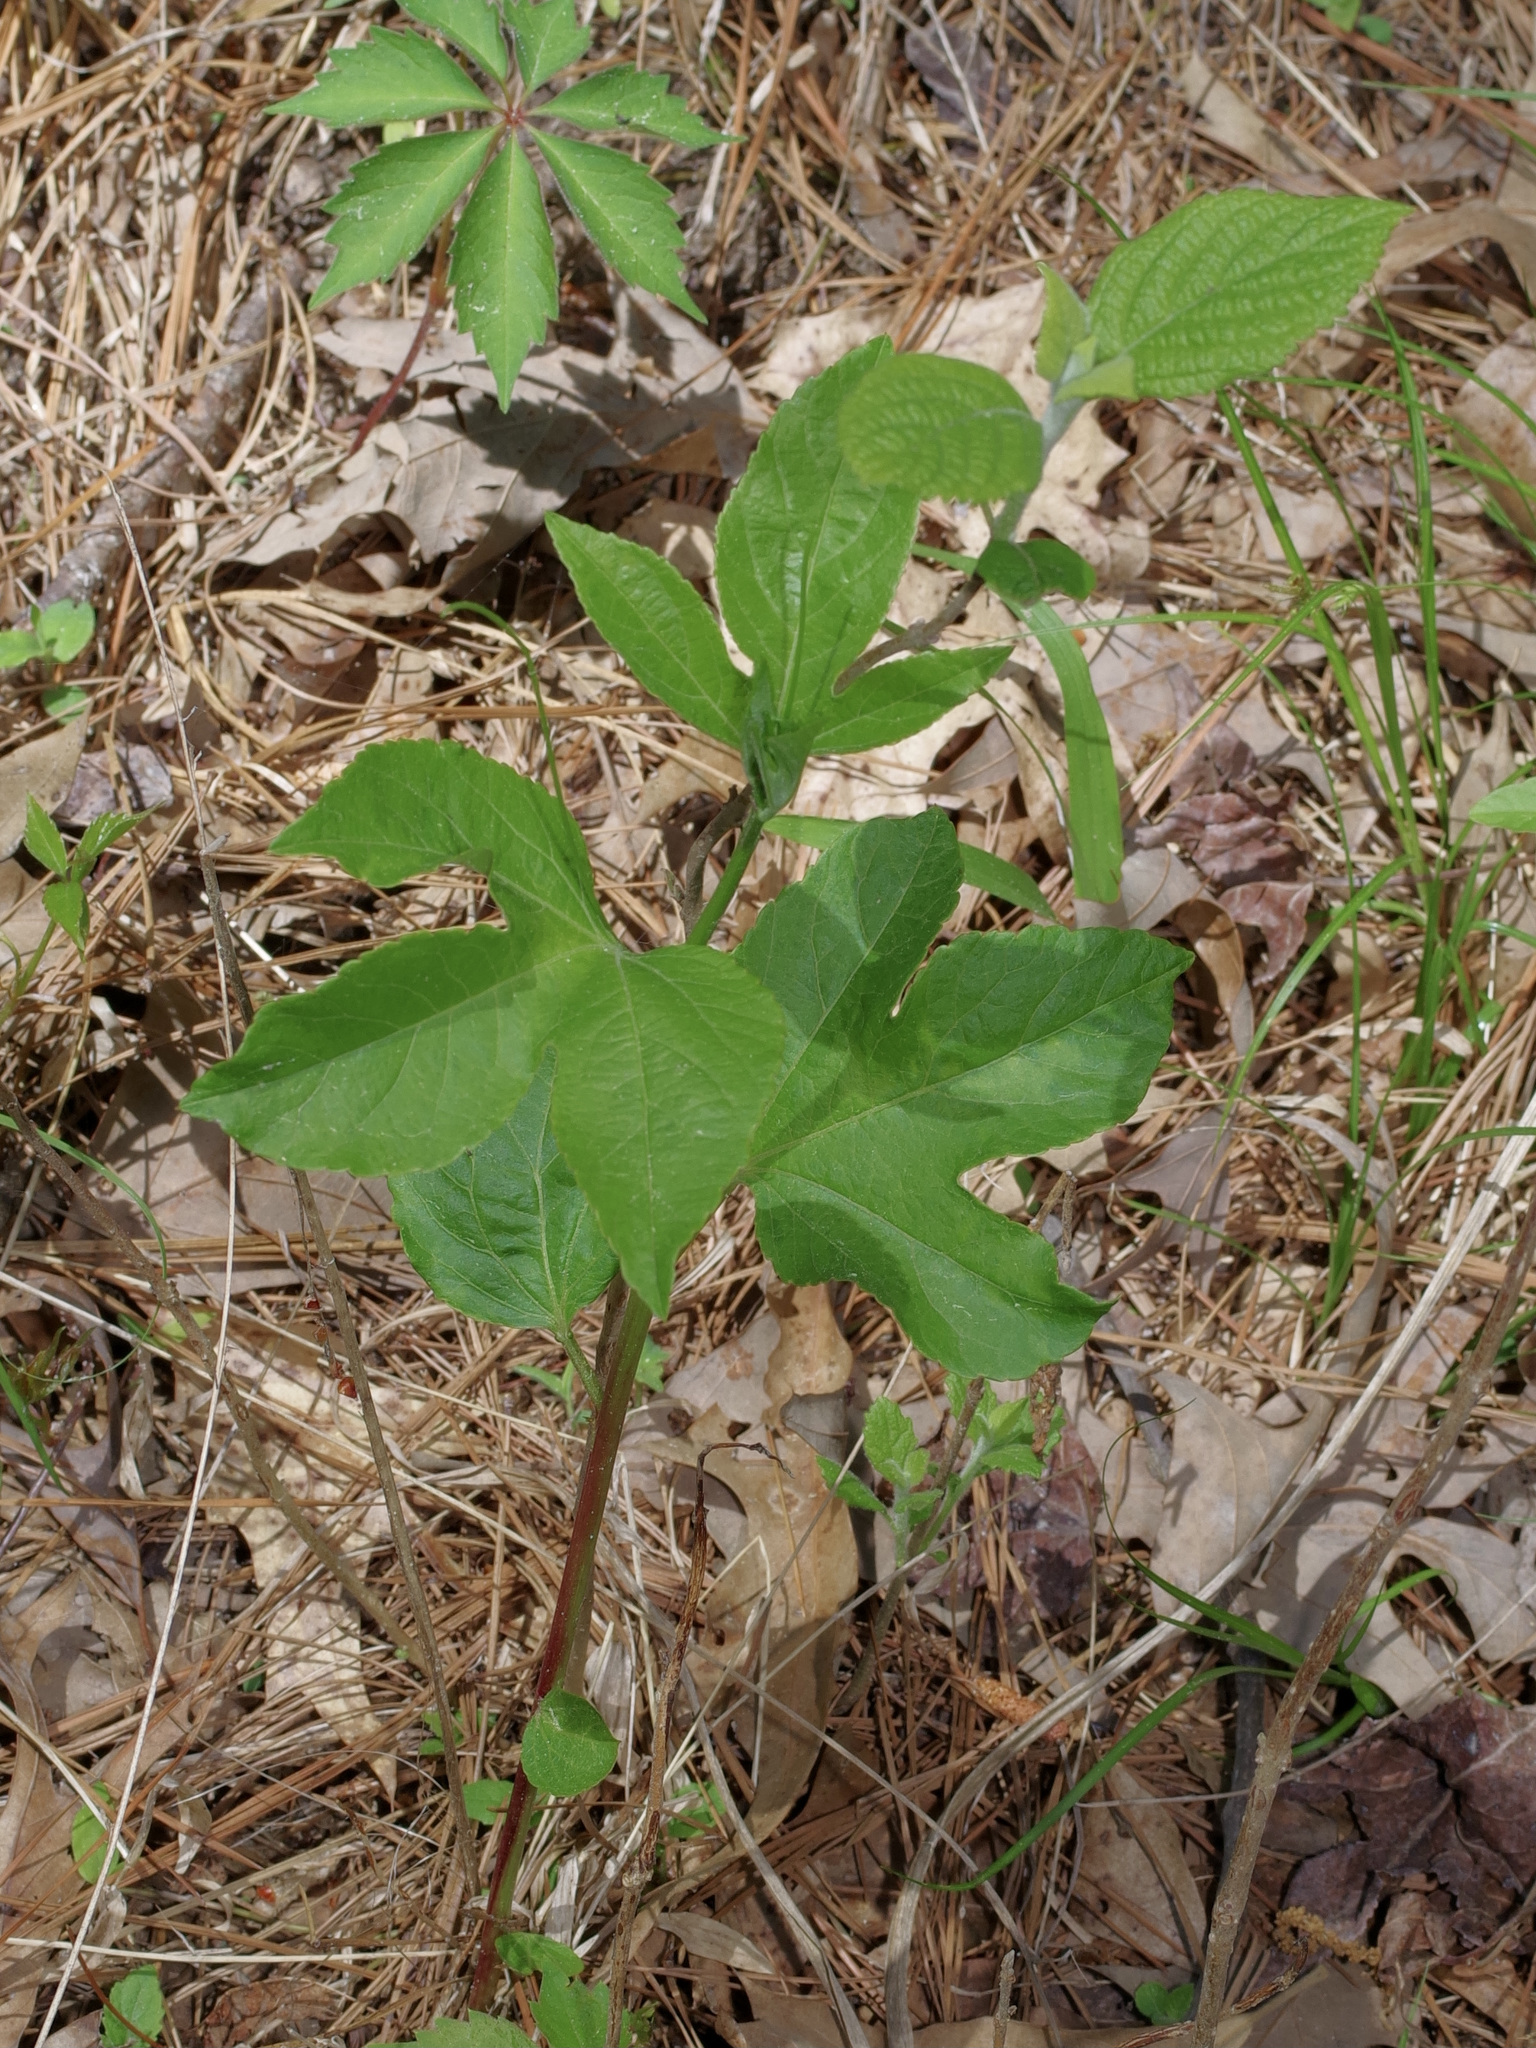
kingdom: Plantae
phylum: Tracheophyta
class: Magnoliopsida
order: Malpighiales
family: Passifloraceae
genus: Passiflora
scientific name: Passiflora incarnata
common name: Apricot-vine
